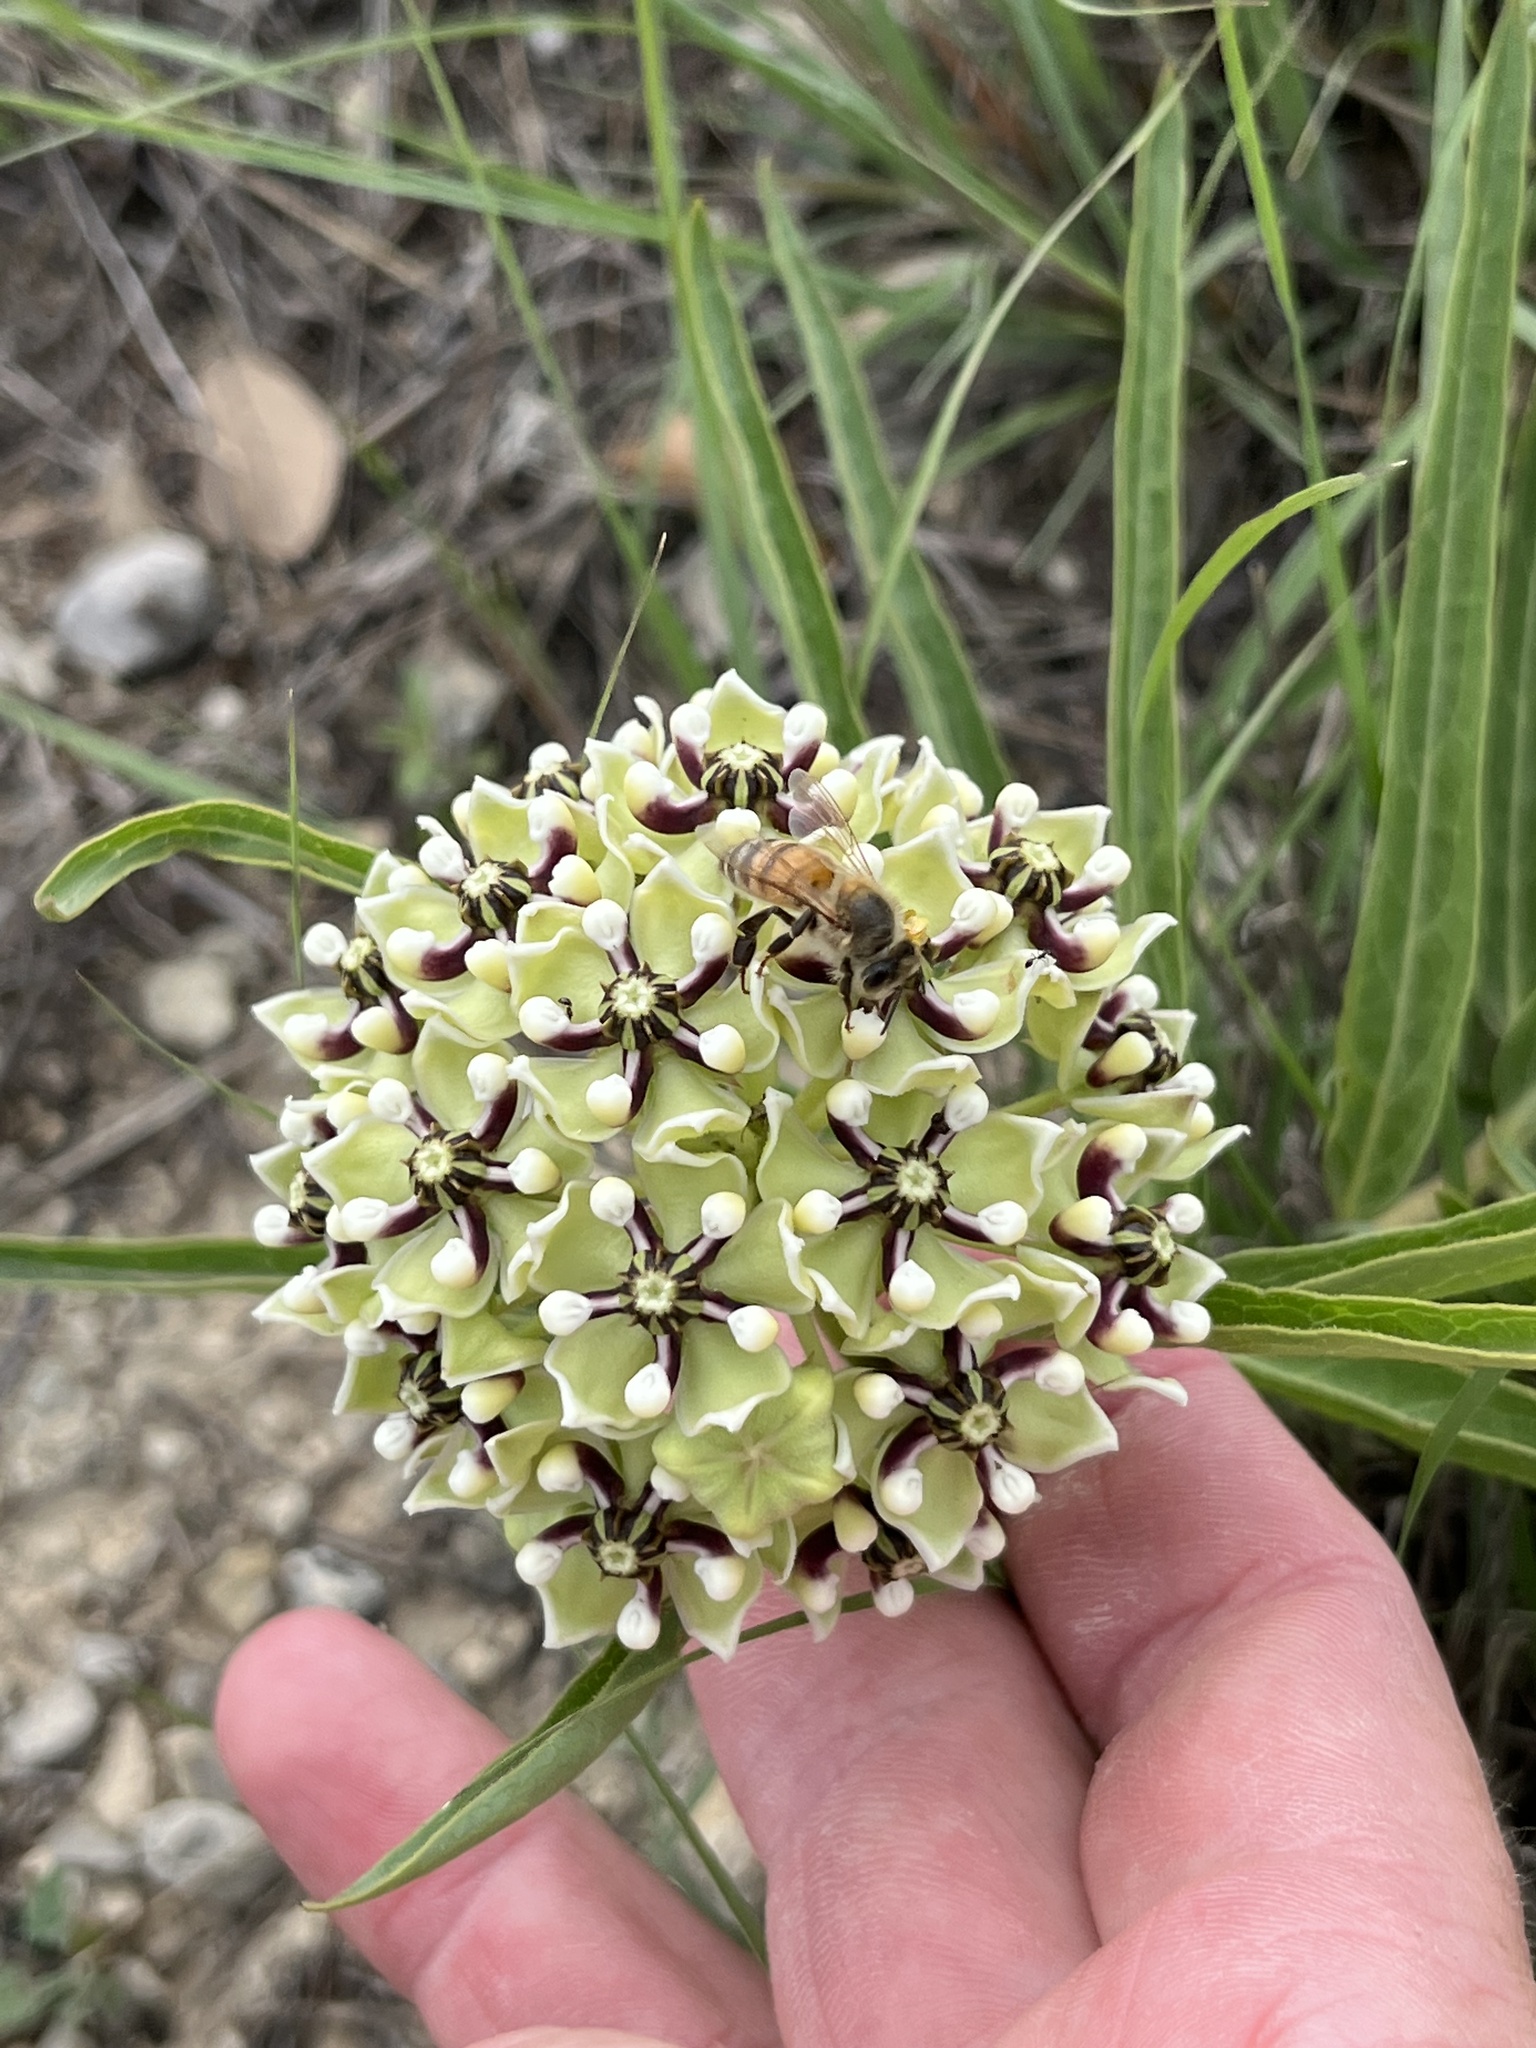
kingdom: Plantae
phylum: Tracheophyta
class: Magnoliopsida
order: Gentianales
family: Apocynaceae
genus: Asclepias
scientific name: Asclepias asperula
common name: Antelope horns
